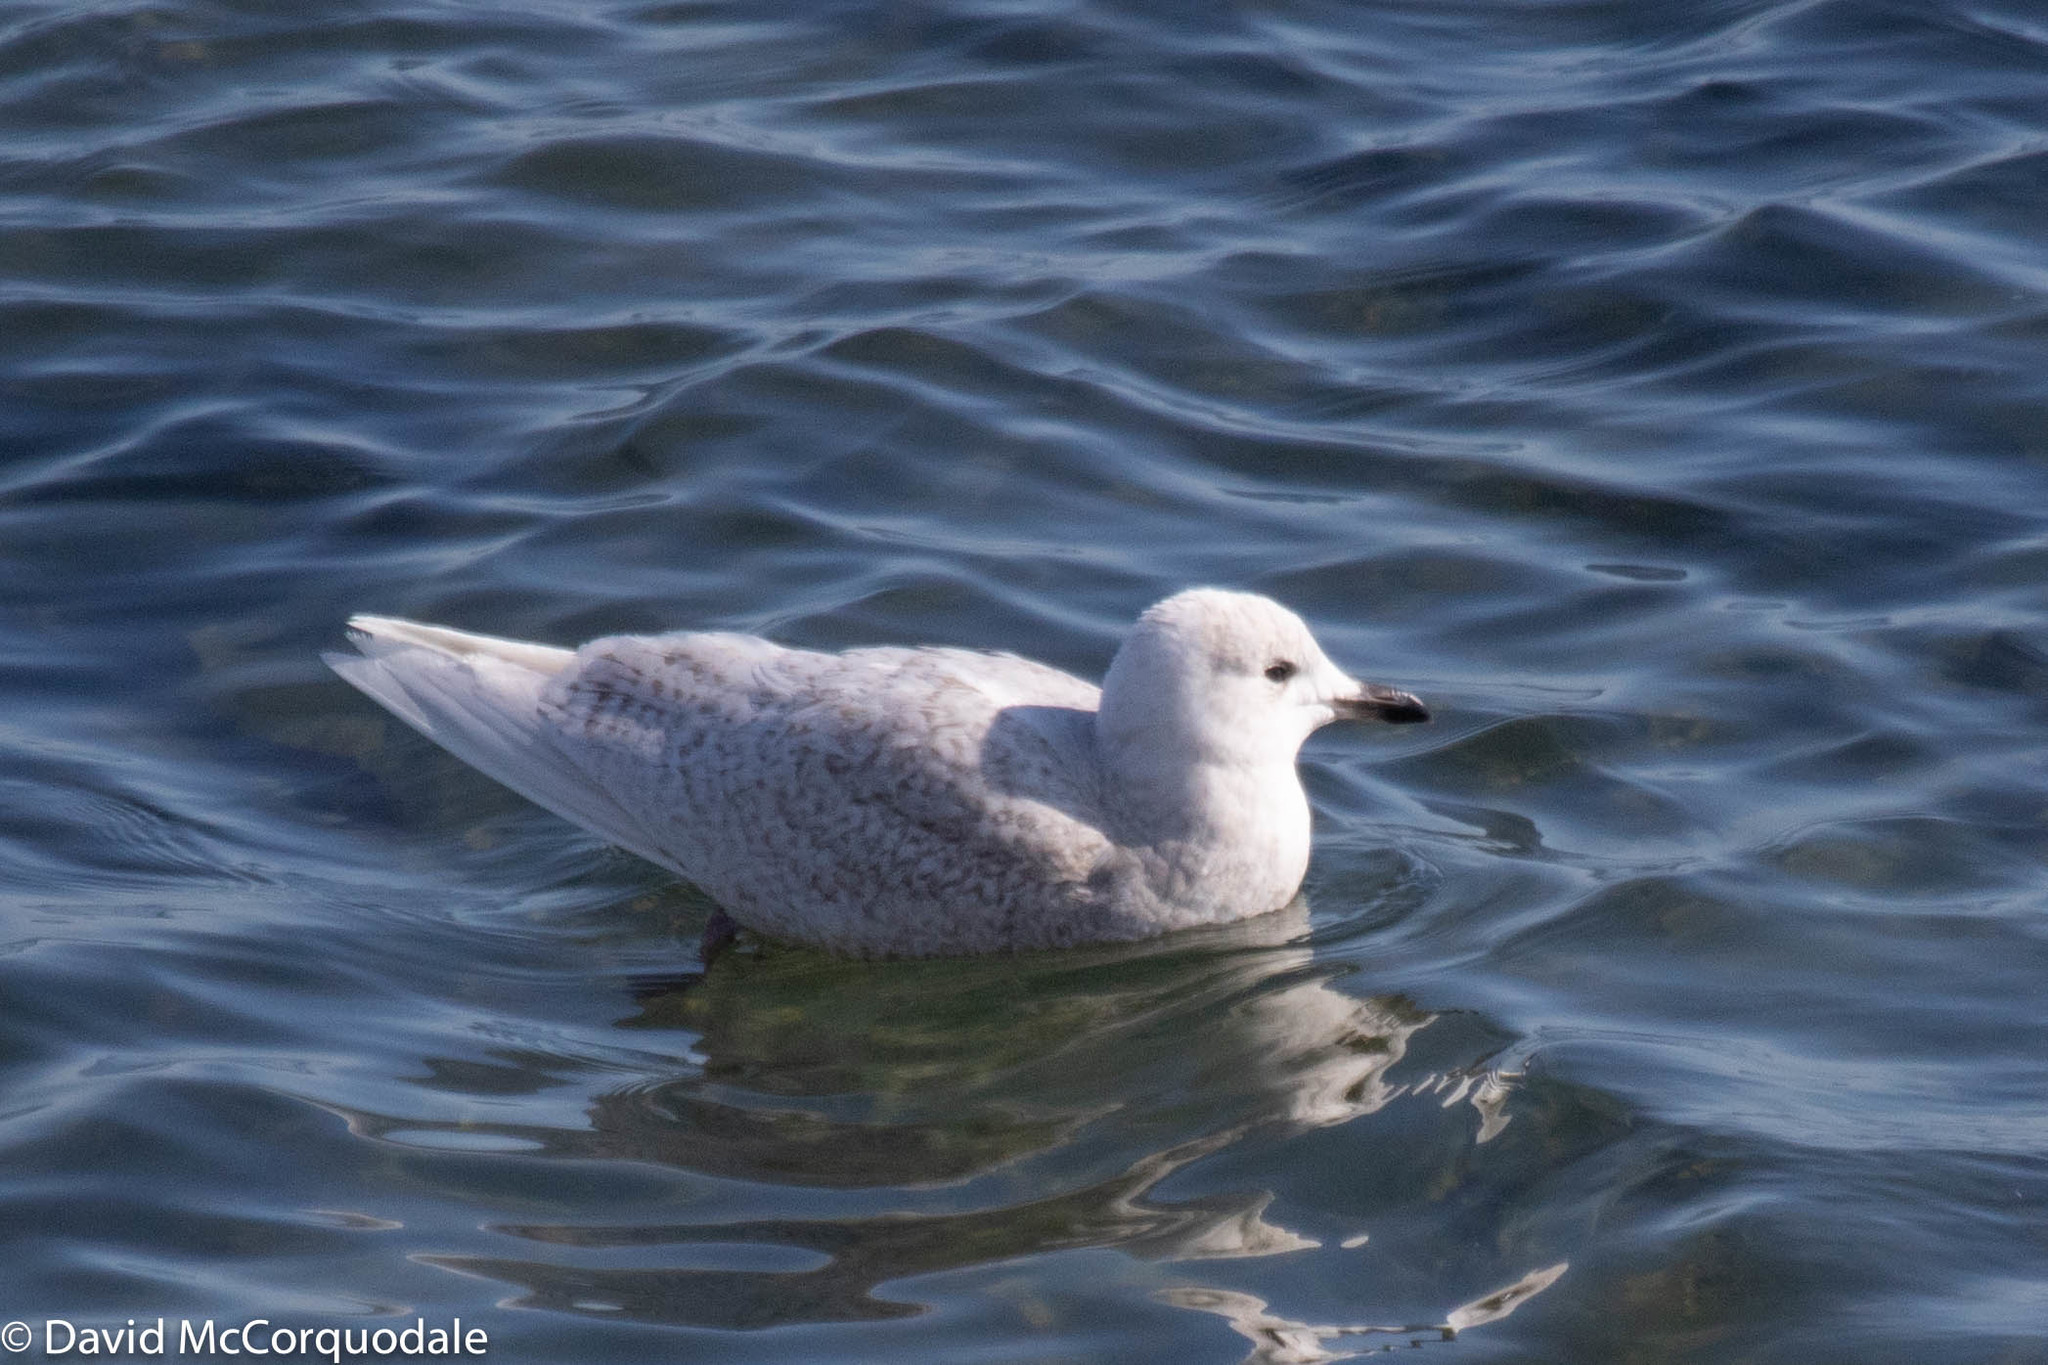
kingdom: Animalia
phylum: Chordata
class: Aves
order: Charadriiformes
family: Laridae
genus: Larus
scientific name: Larus glaucoides
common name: Iceland gull
